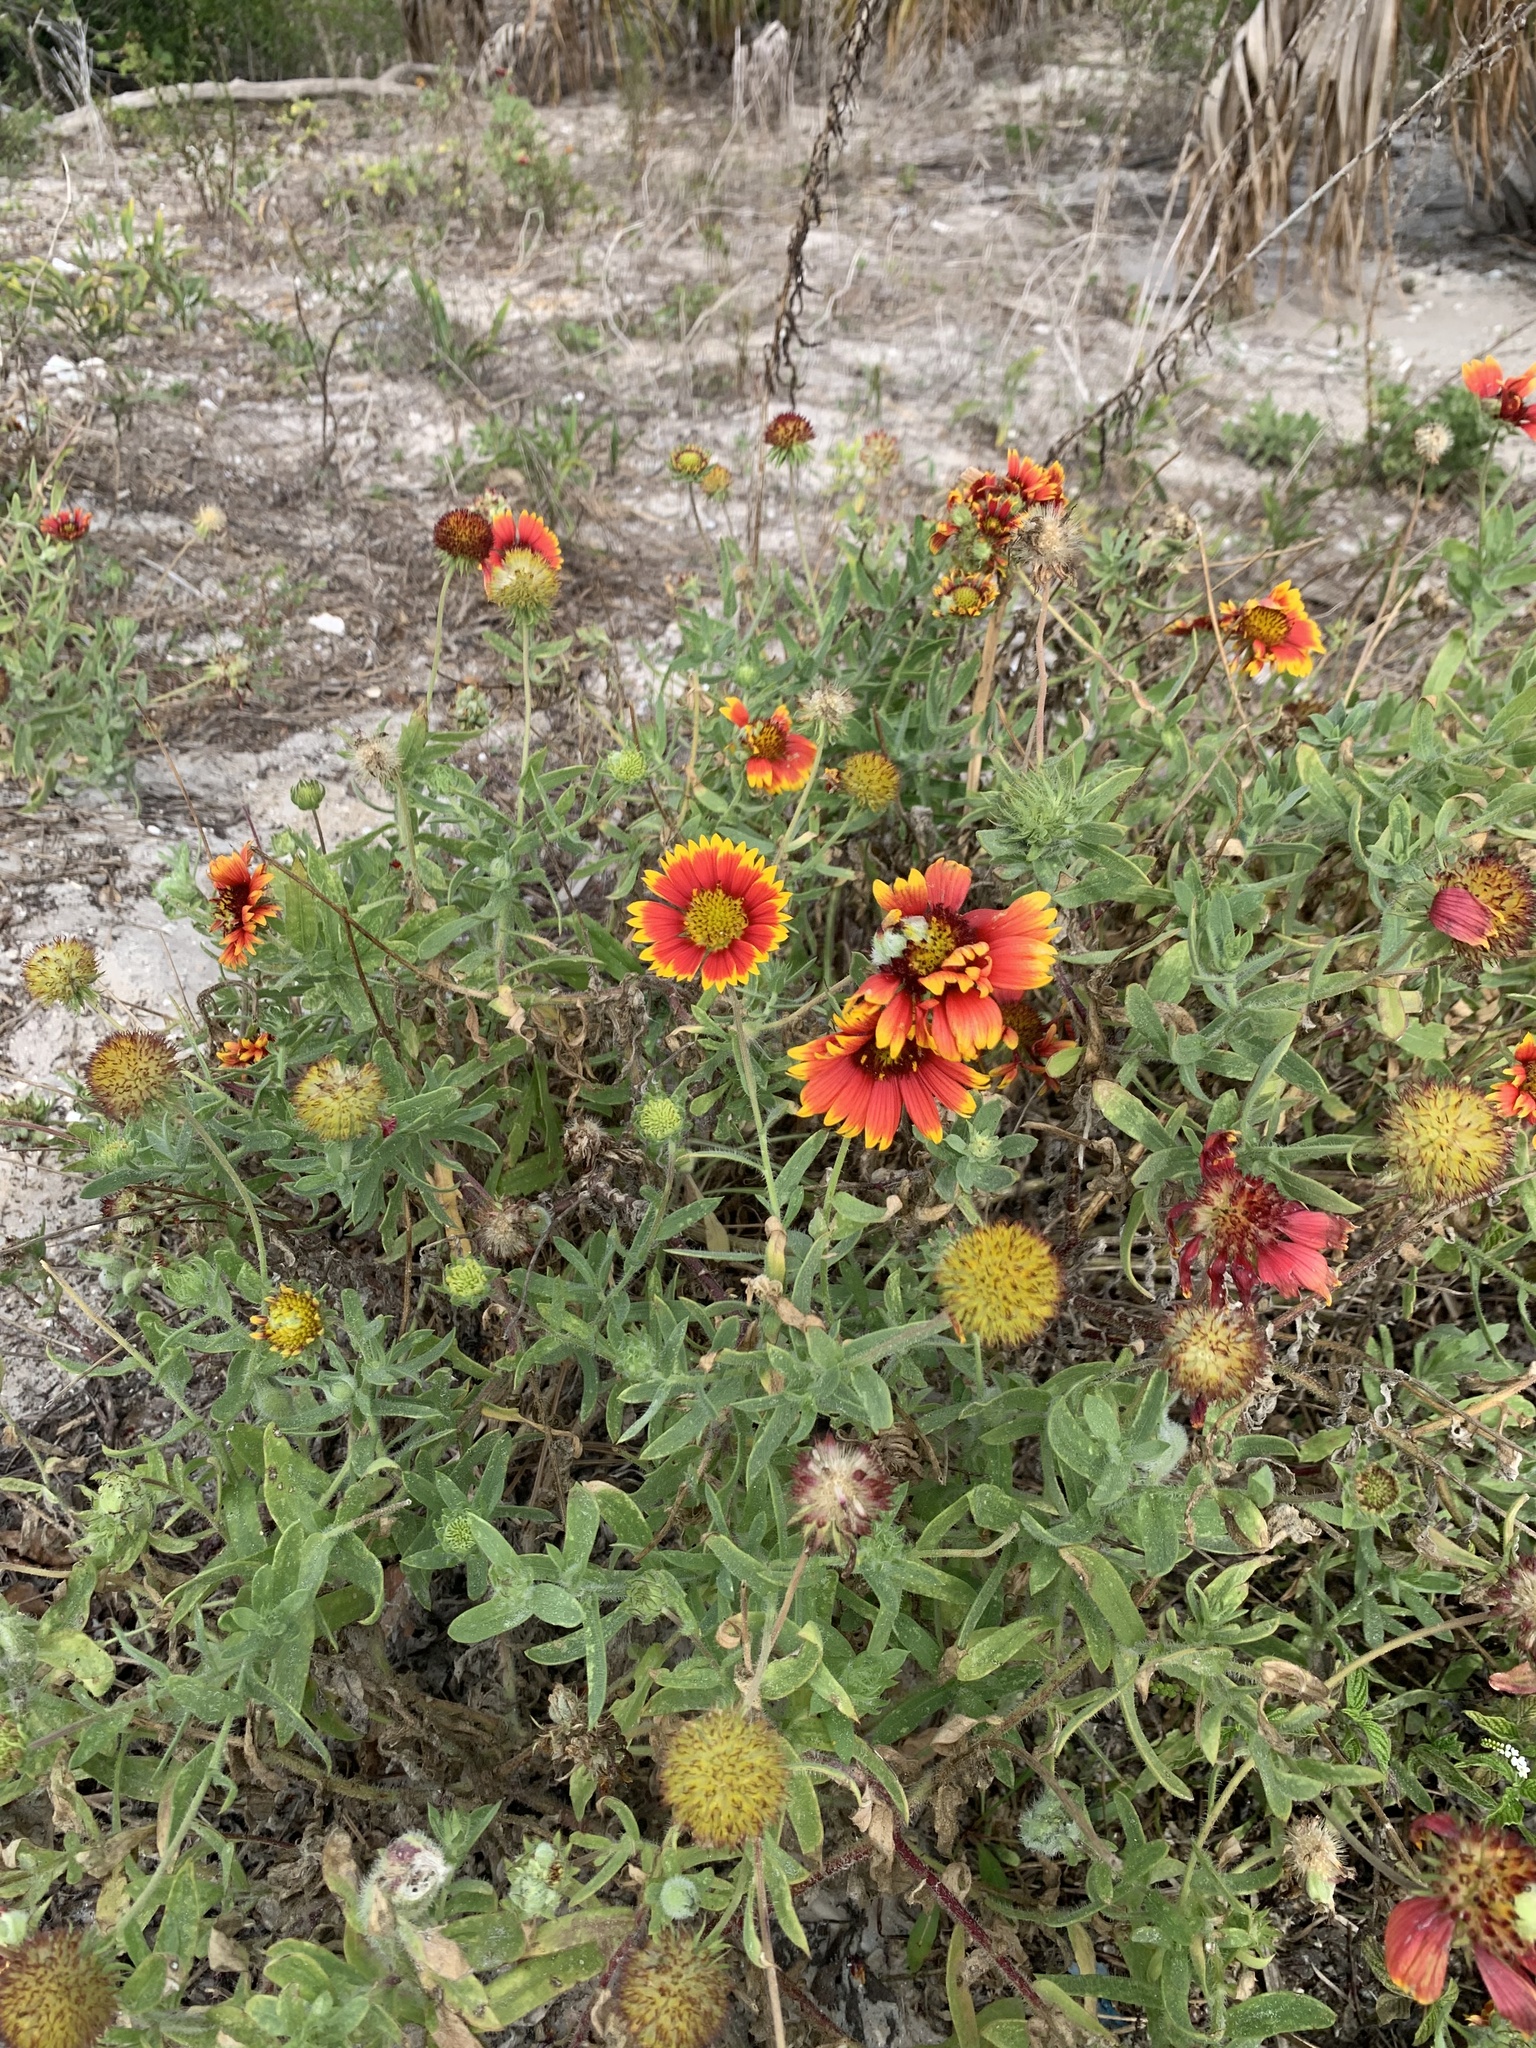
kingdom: Plantae
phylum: Tracheophyta
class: Magnoliopsida
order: Asterales
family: Asteraceae
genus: Gaillardia
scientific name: Gaillardia pulchella
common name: Firewheel
